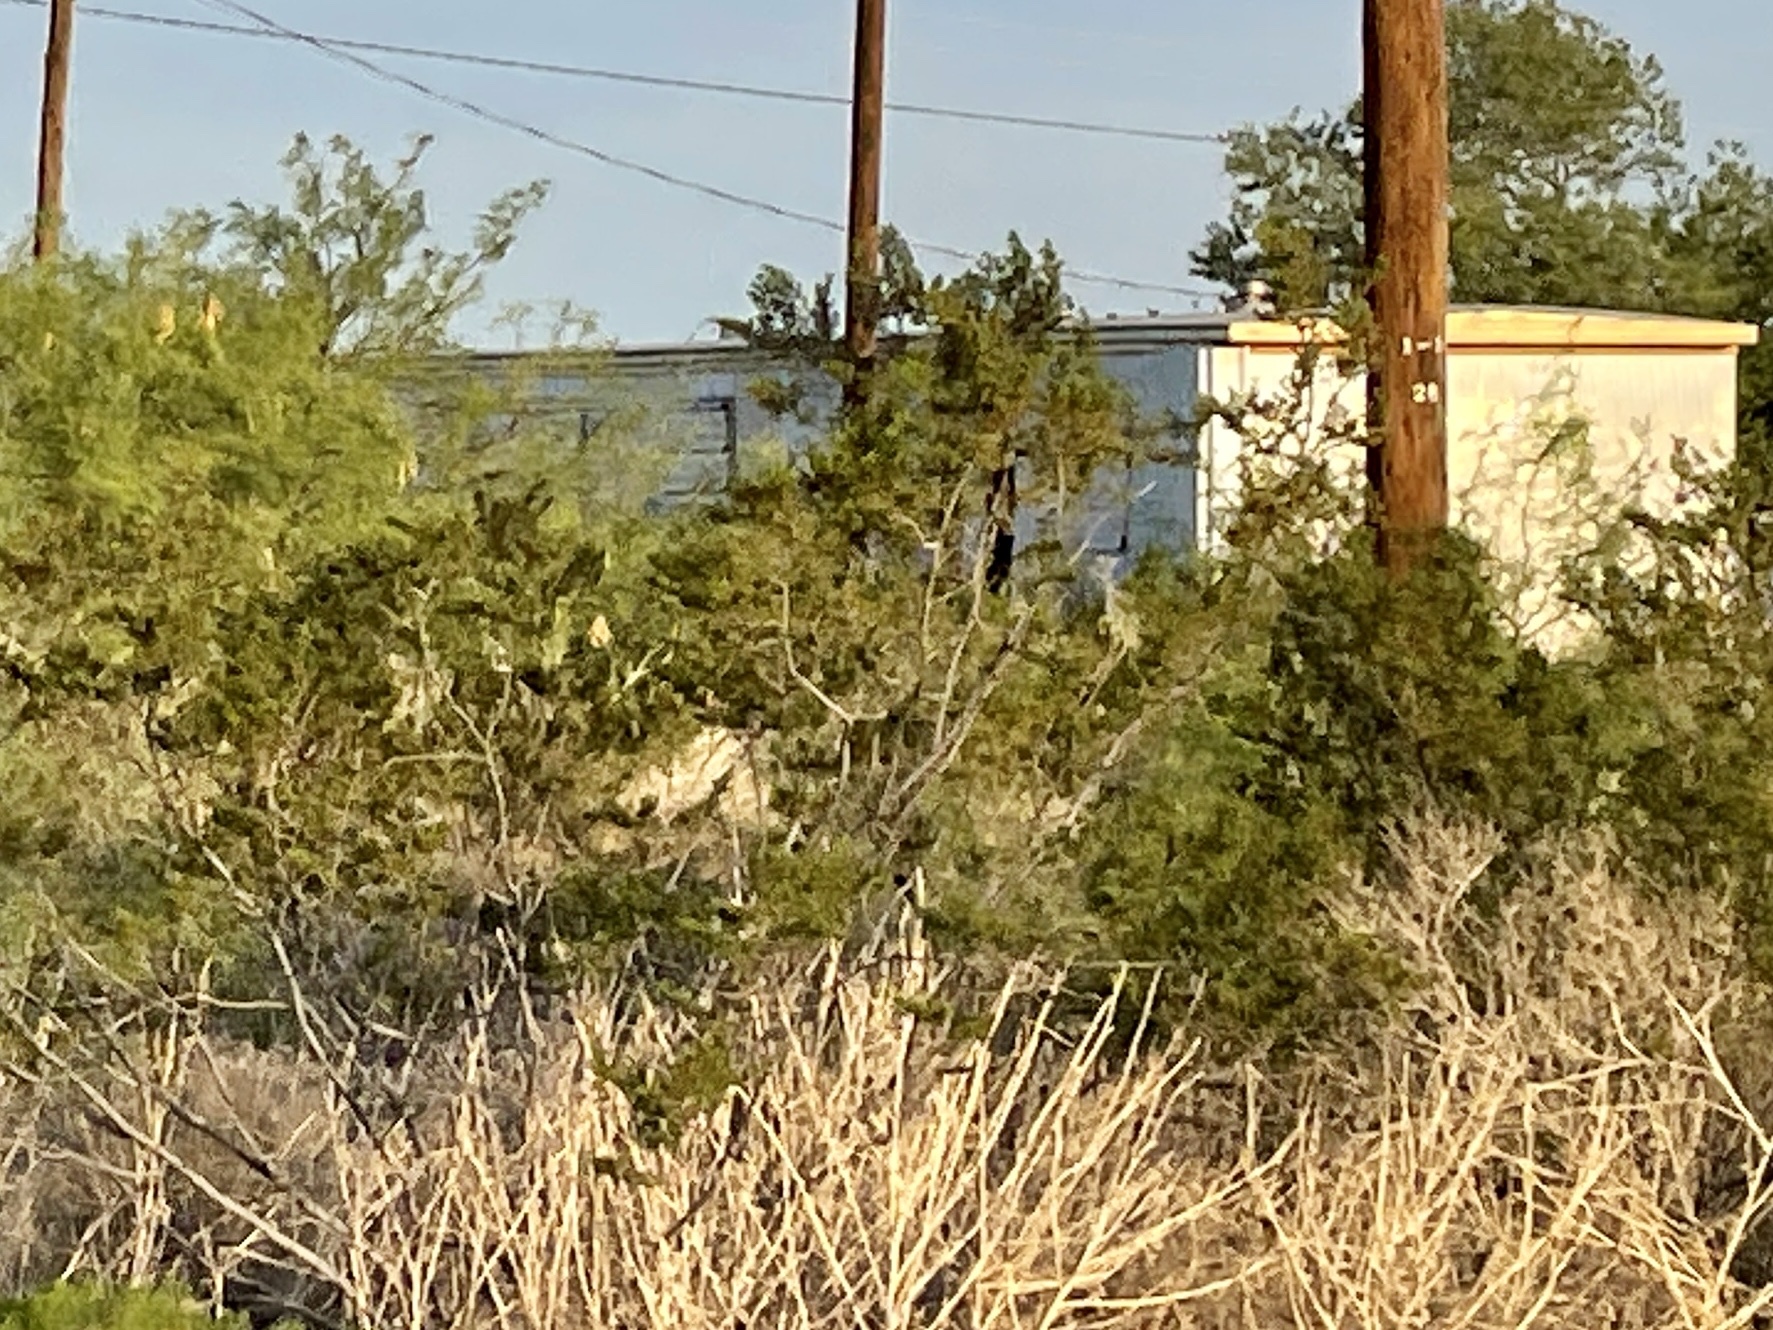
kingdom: Plantae
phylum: Tracheophyta
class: Magnoliopsida
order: Zygophyllales
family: Zygophyllaceae
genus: Larrea
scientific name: Larrea tridentata
